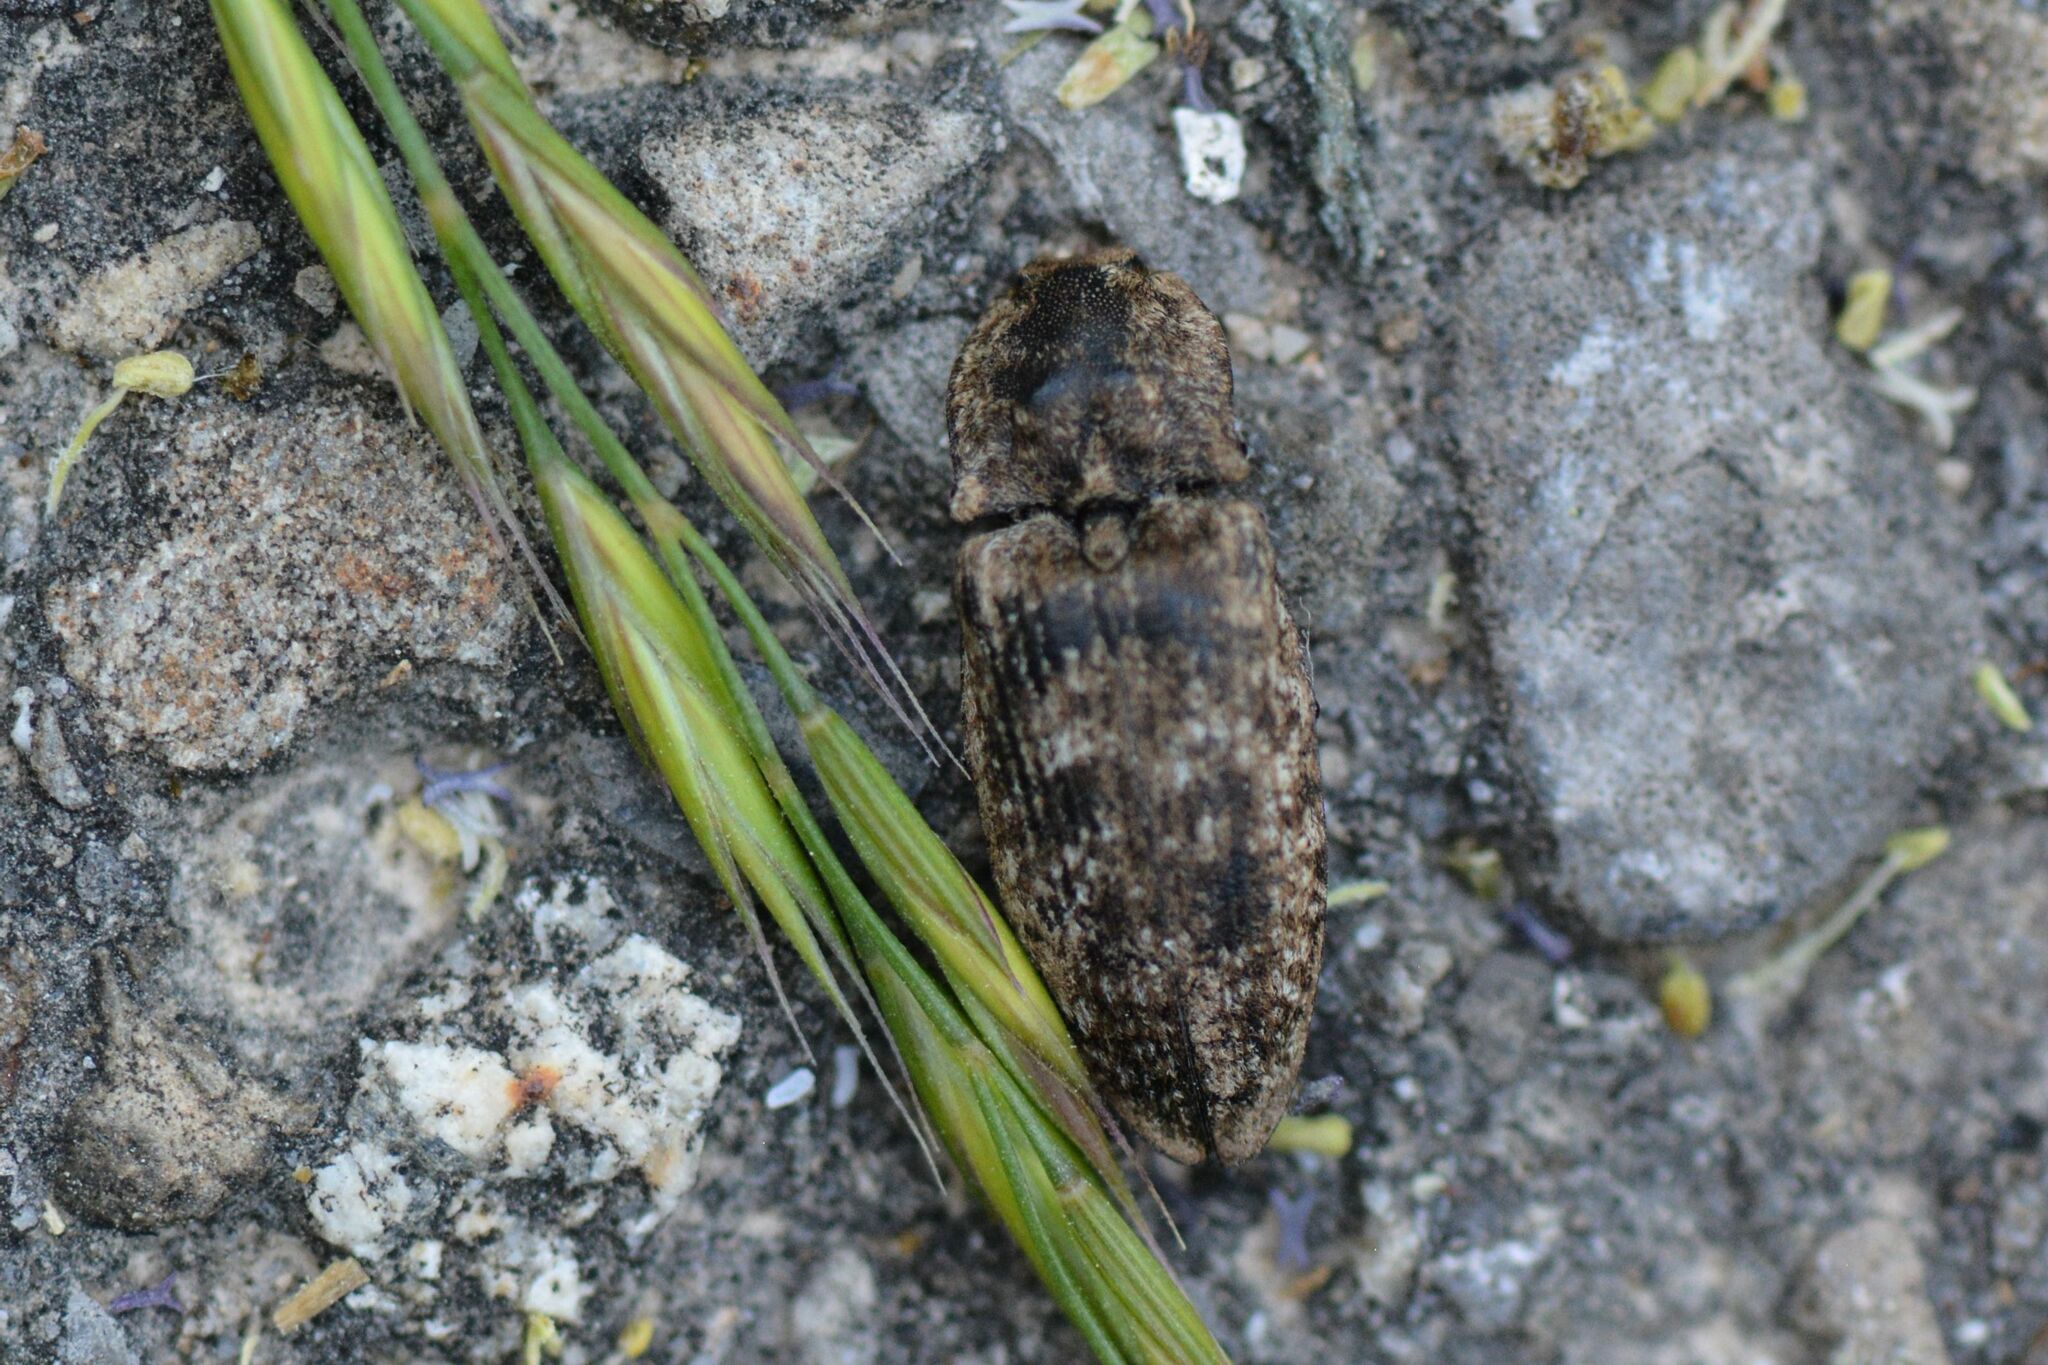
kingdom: Animalia
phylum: Arthropoda
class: Insecta
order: Coleoptera
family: Elateridae
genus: Agrypnus
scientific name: Agrypnus murinus
